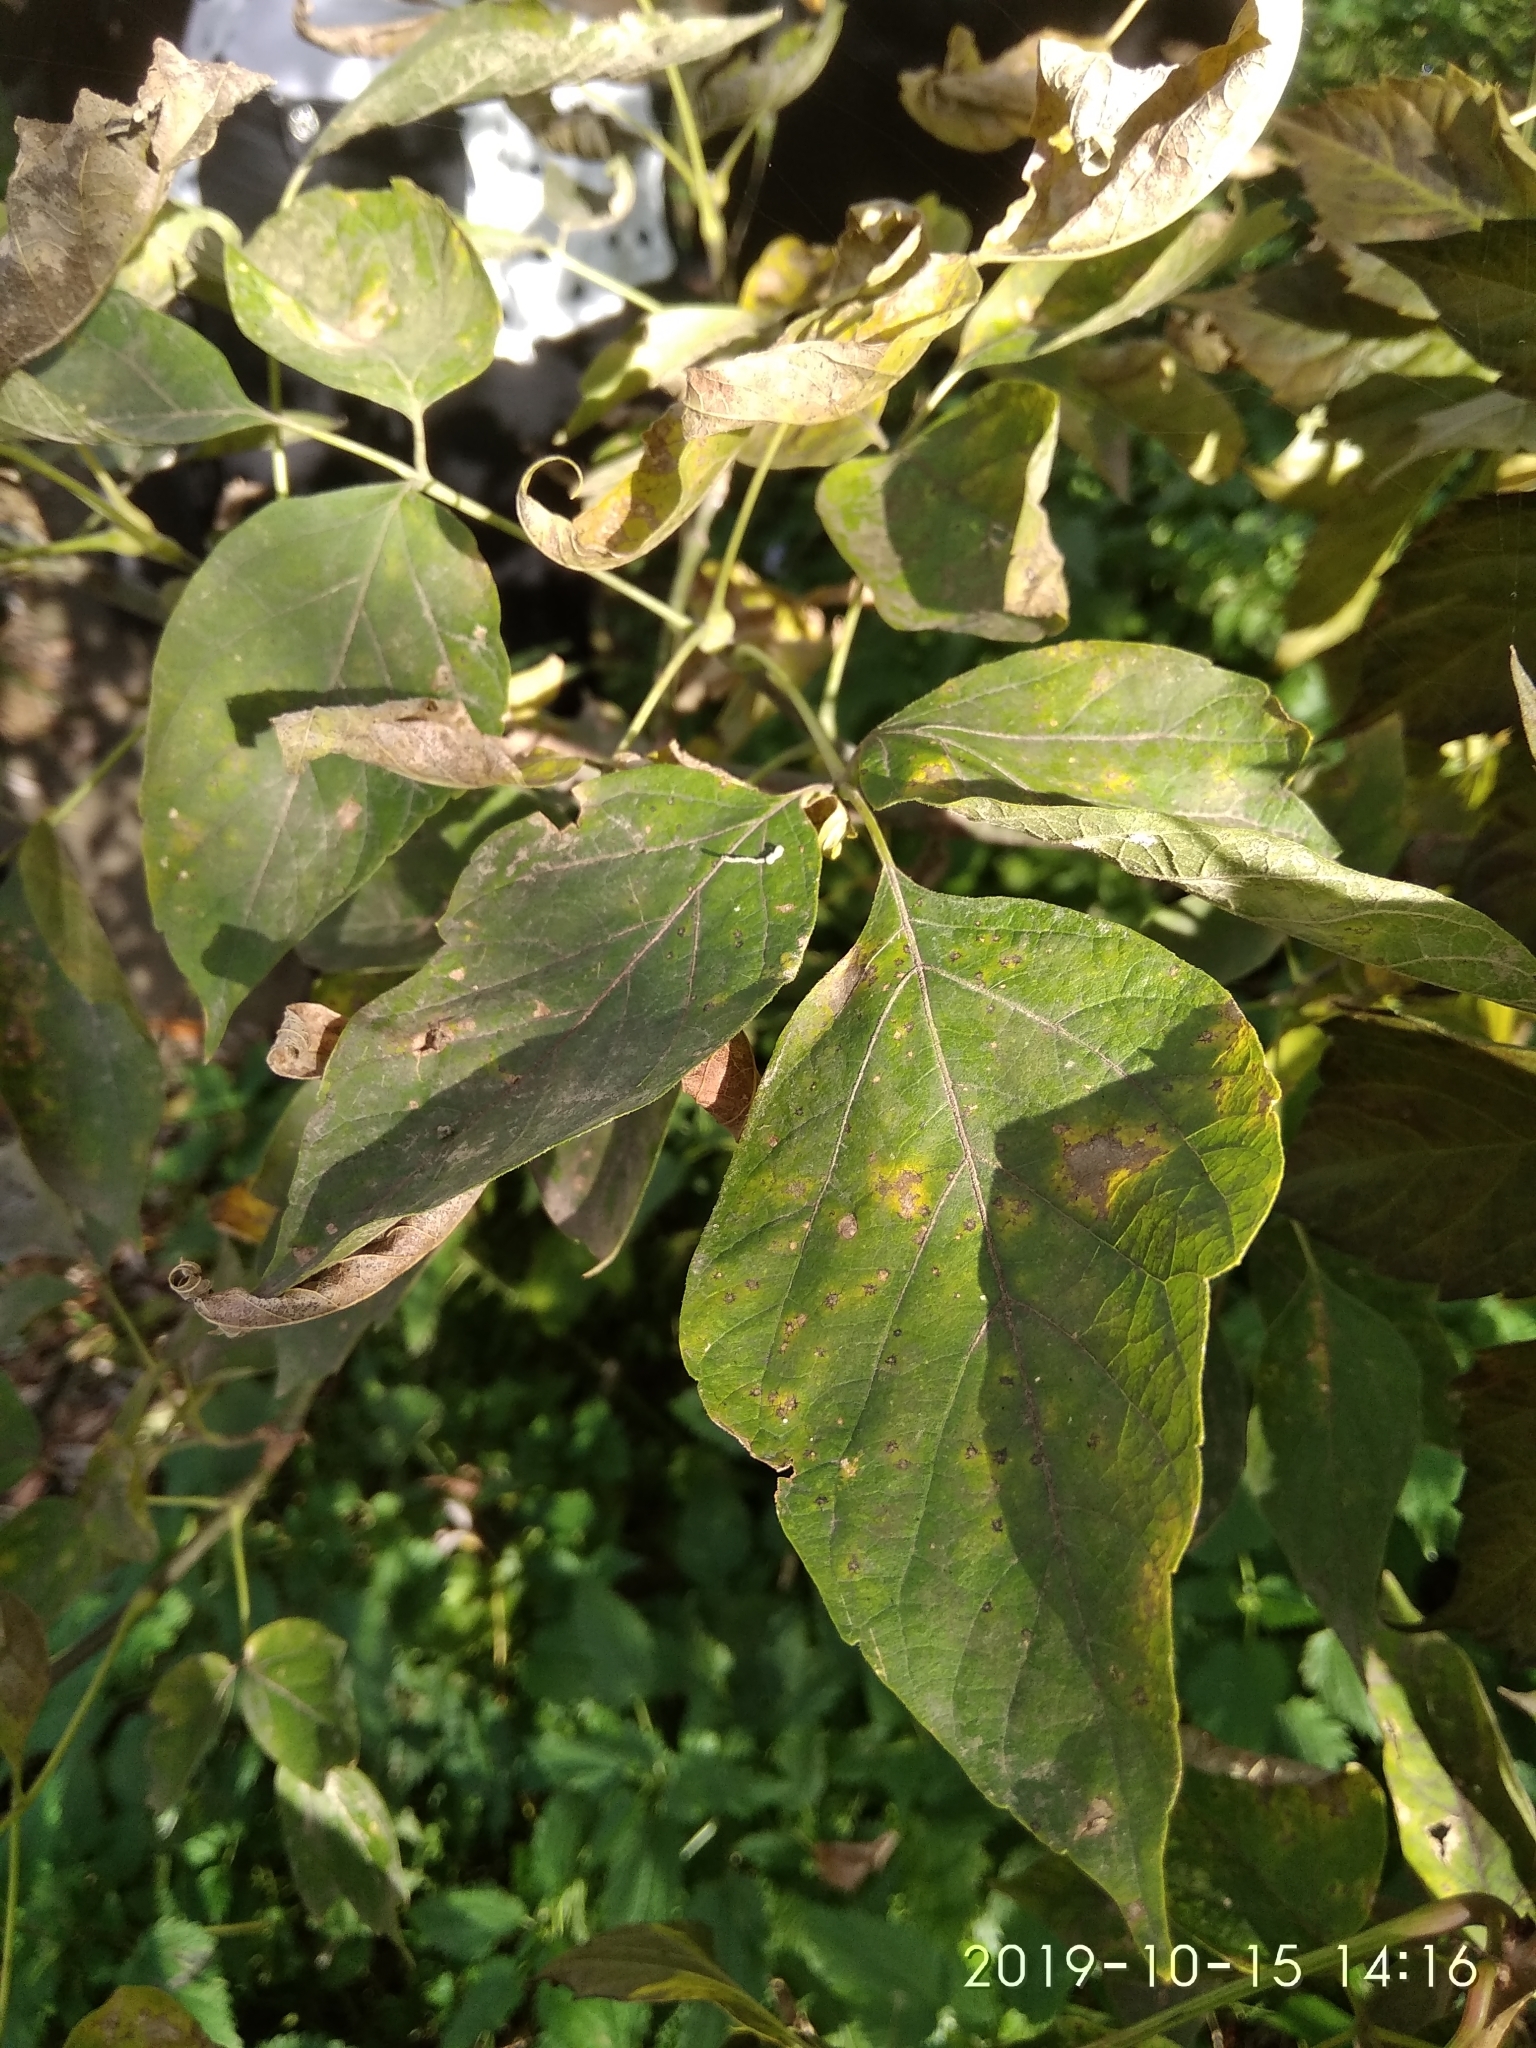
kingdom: Plantae
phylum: Tracheophyta
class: Magnoliopsida
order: Sapindales
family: Sapindaceae
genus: Acer
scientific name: Acer negundo
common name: Ashleaf maple
